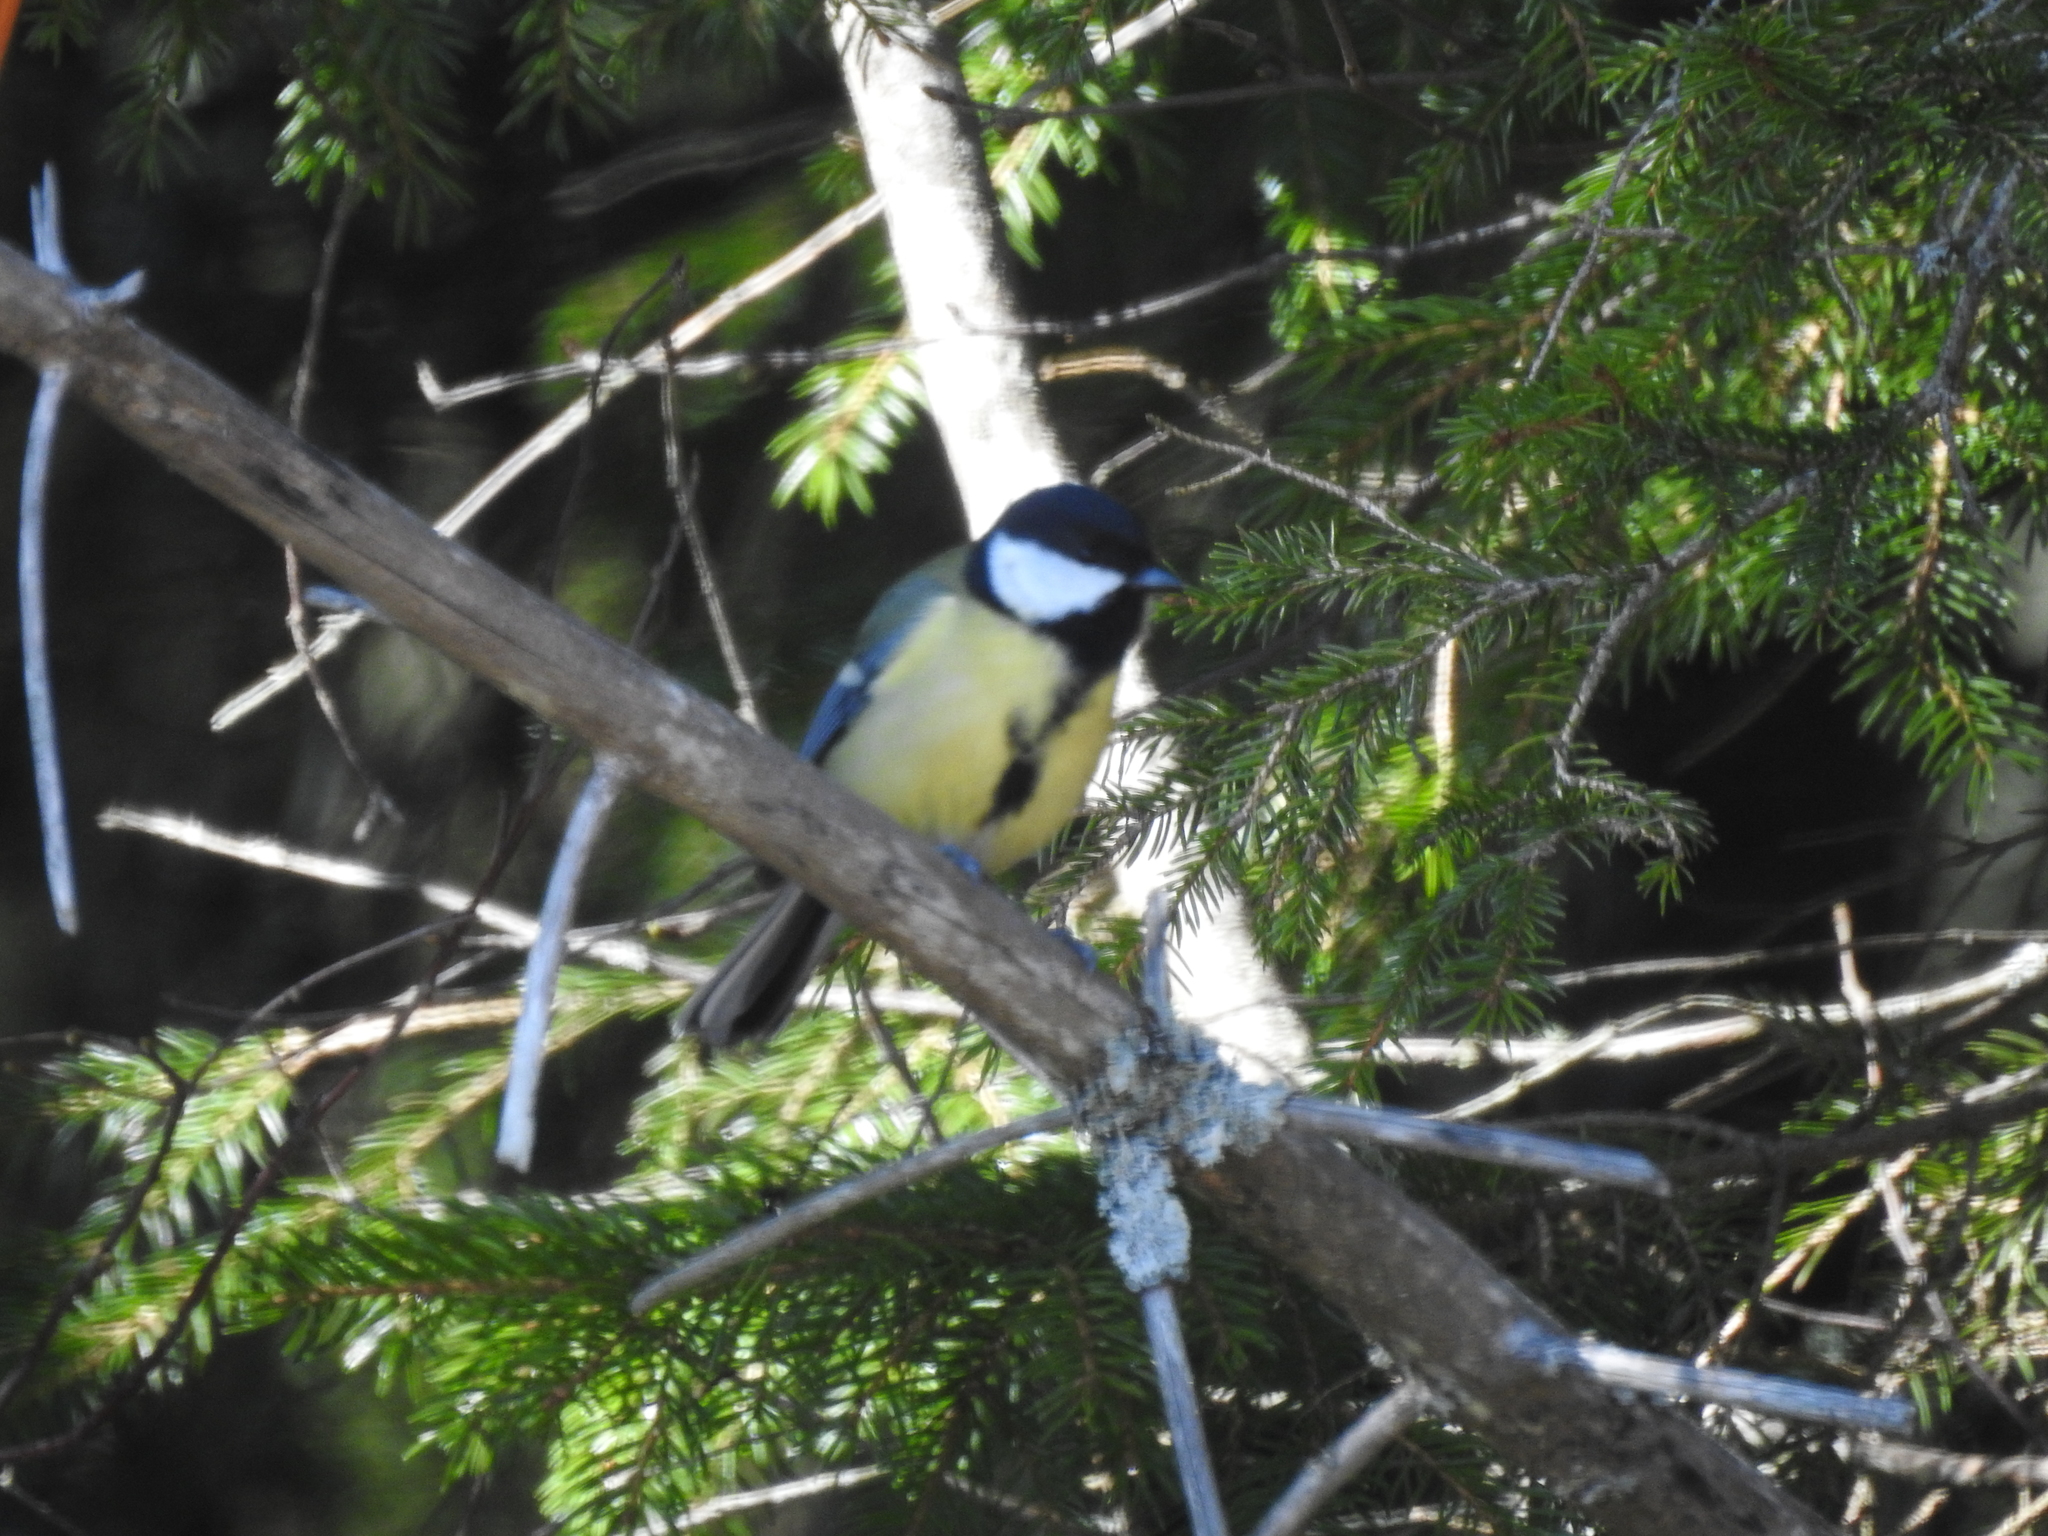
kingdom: Animalia
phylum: Chordata
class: Aves
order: Passeriformes
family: Paridae
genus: Parus
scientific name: Parus major
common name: Great tit
